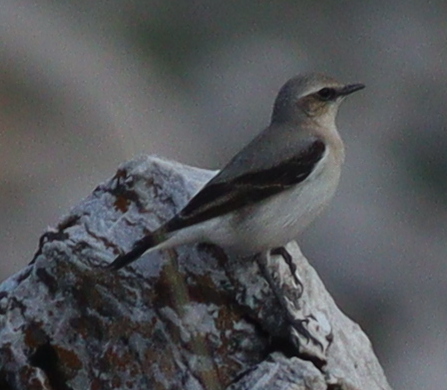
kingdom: Animalia
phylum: Chordata
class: Aves
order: Passeriformes
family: Muscicapidae
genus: Oenanthe
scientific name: Oenanthe oenanthe
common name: Northern wheatear
